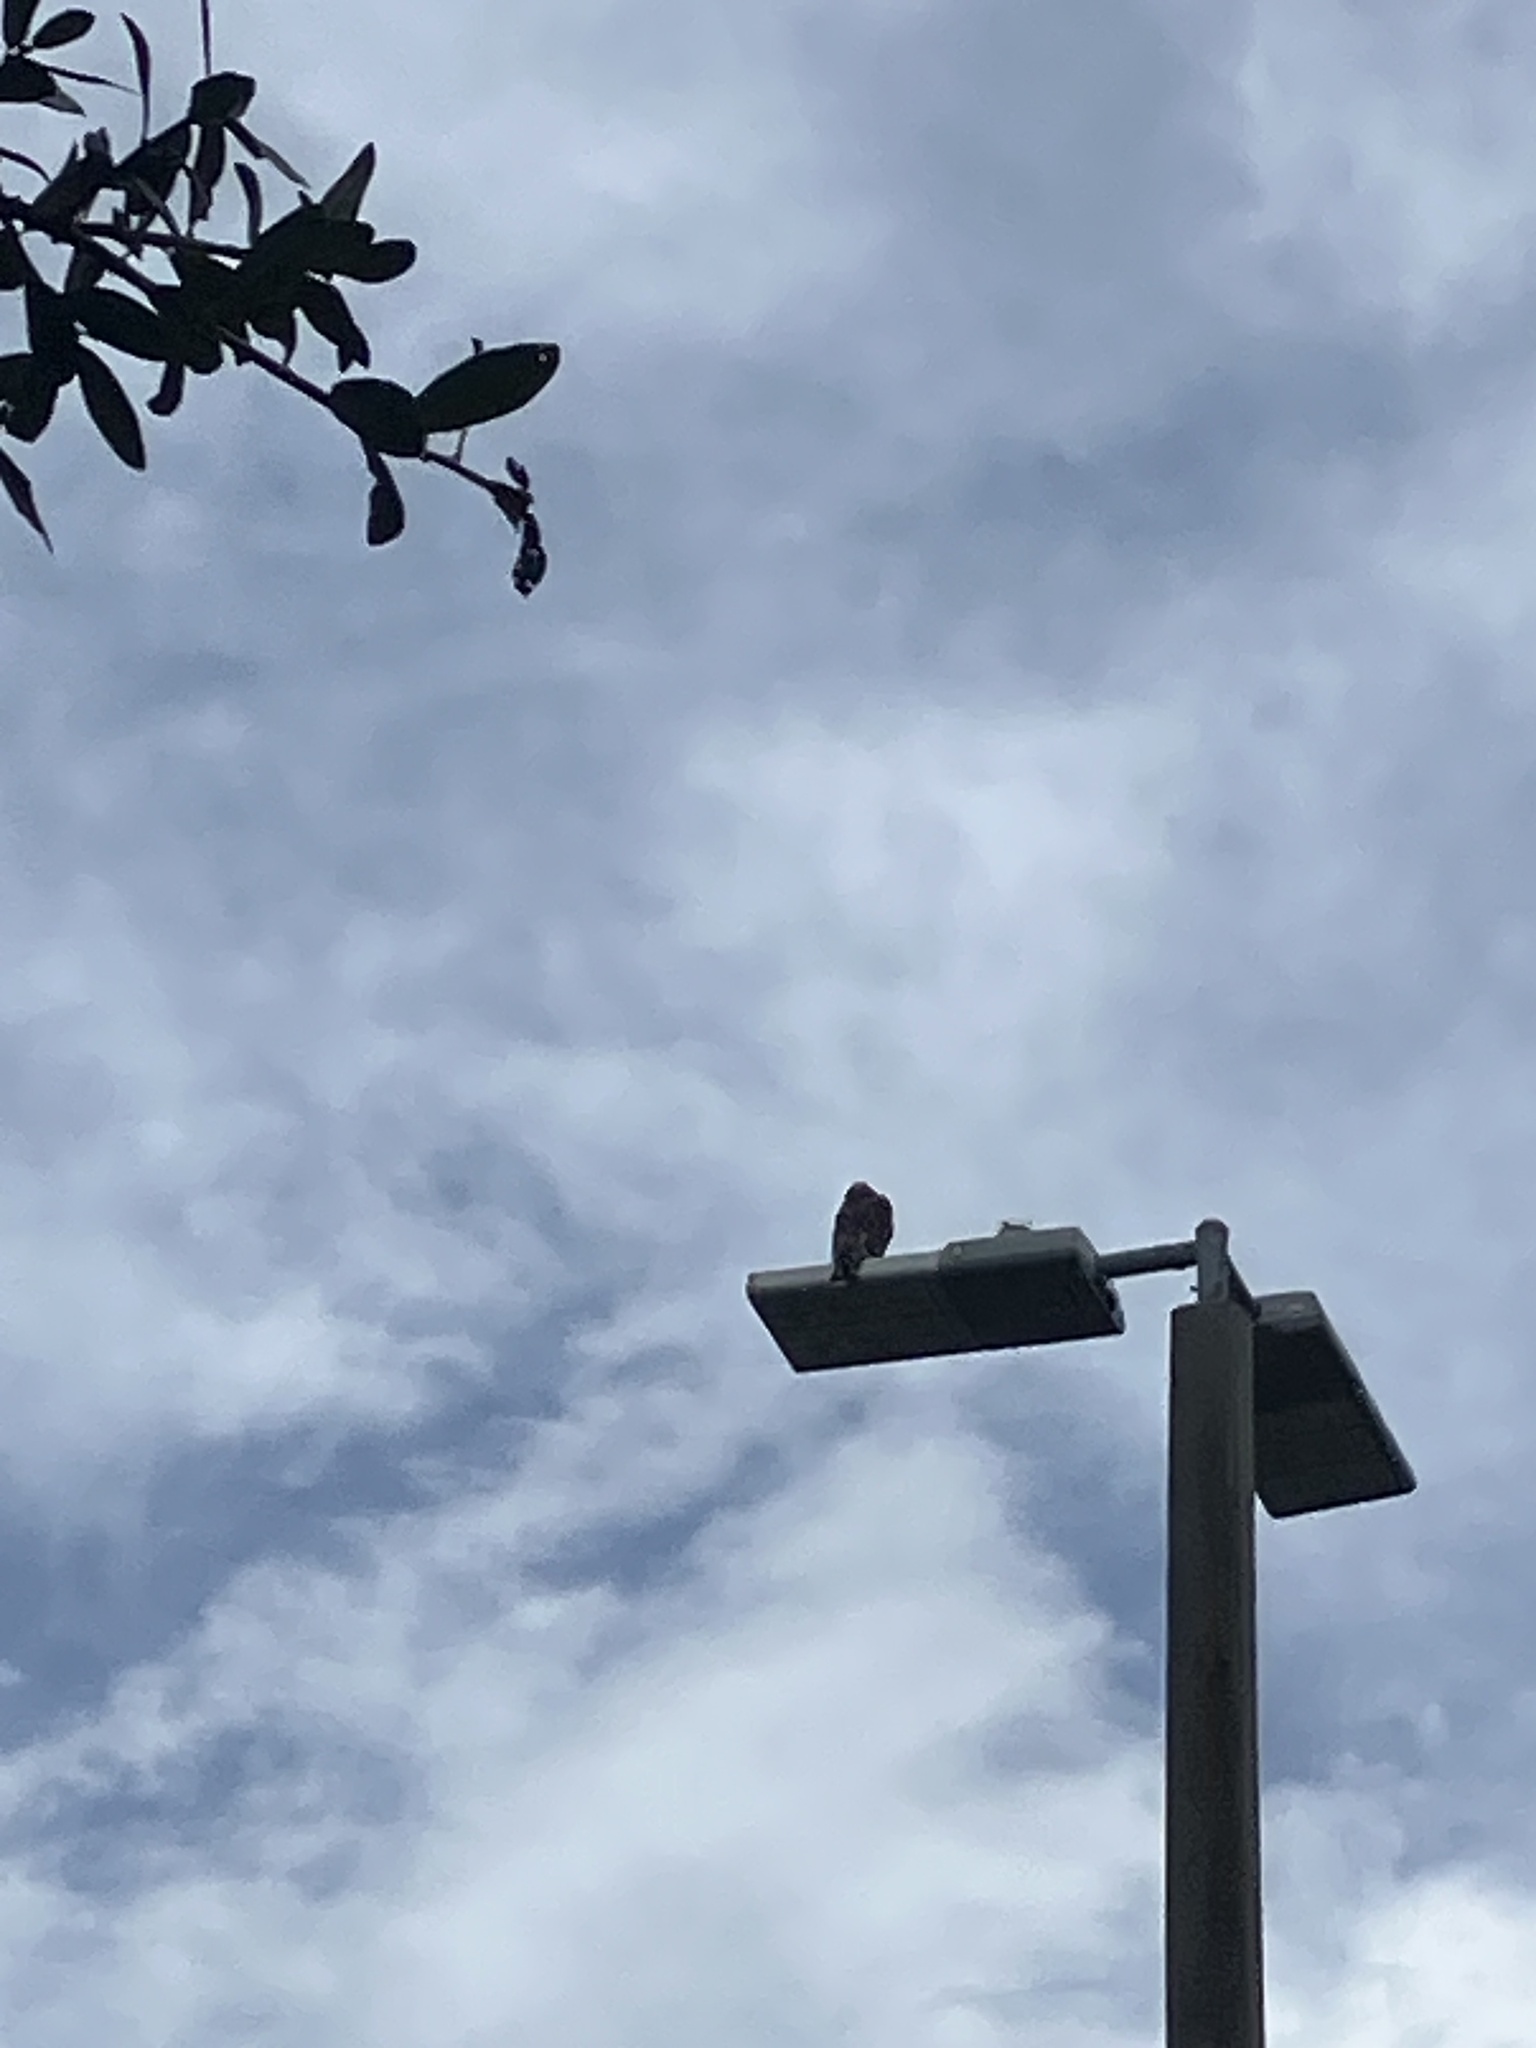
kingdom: Animalia
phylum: Chordata
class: Aves
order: Accipitriformes
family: Accipitridae
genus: Buteo
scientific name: Buteo lineatus
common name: Red-shouldered hawk
